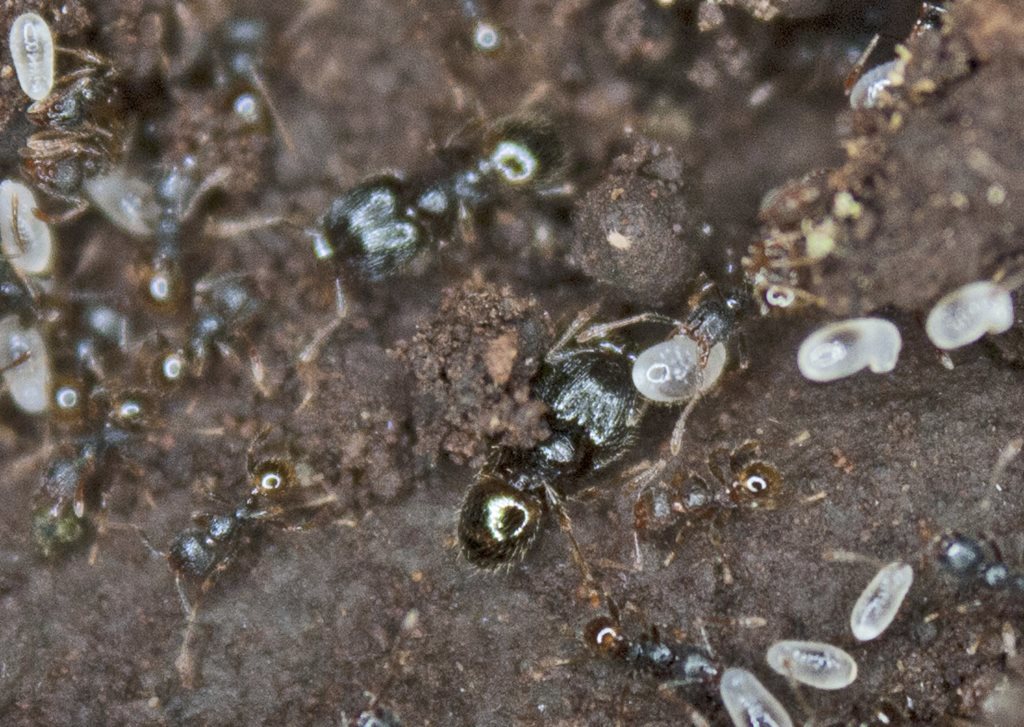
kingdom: Animalia
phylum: Arthropoda
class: Insecta
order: Hymenoptera
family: Formicidae
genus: Pheidole
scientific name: Pheidole anthracina
